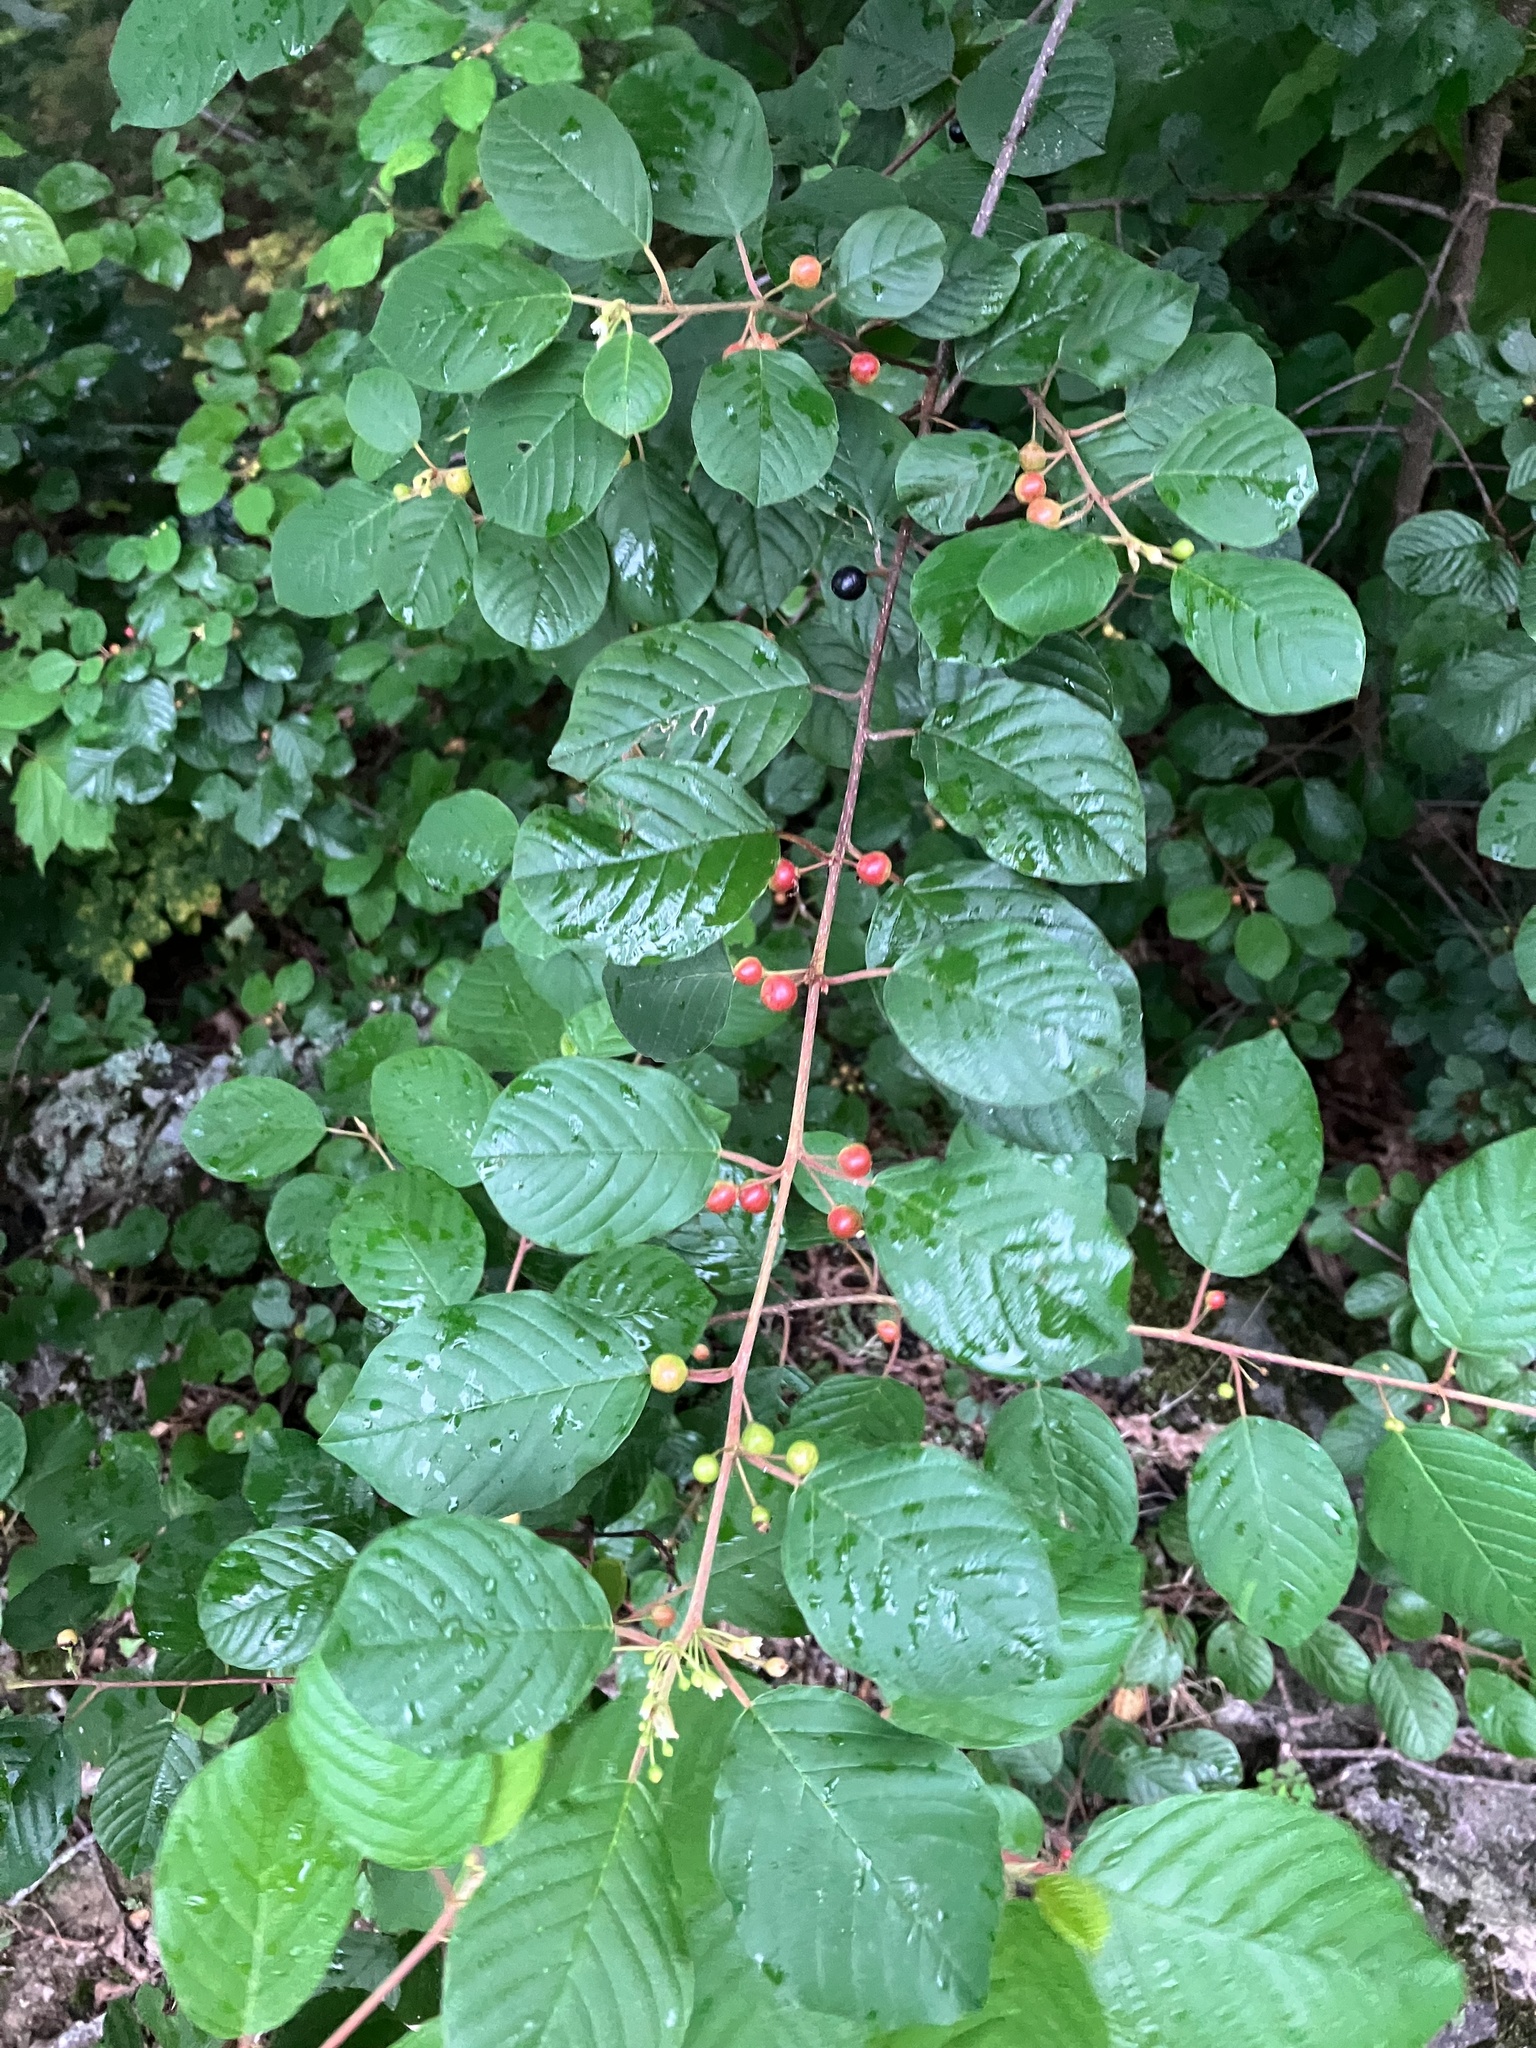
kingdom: Plantae
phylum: Tracheophyta
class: Magnoliopsida
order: Rosales
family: Rhamnaceae
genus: Frangula
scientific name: Frangula alnus
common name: Alder buckthorn
